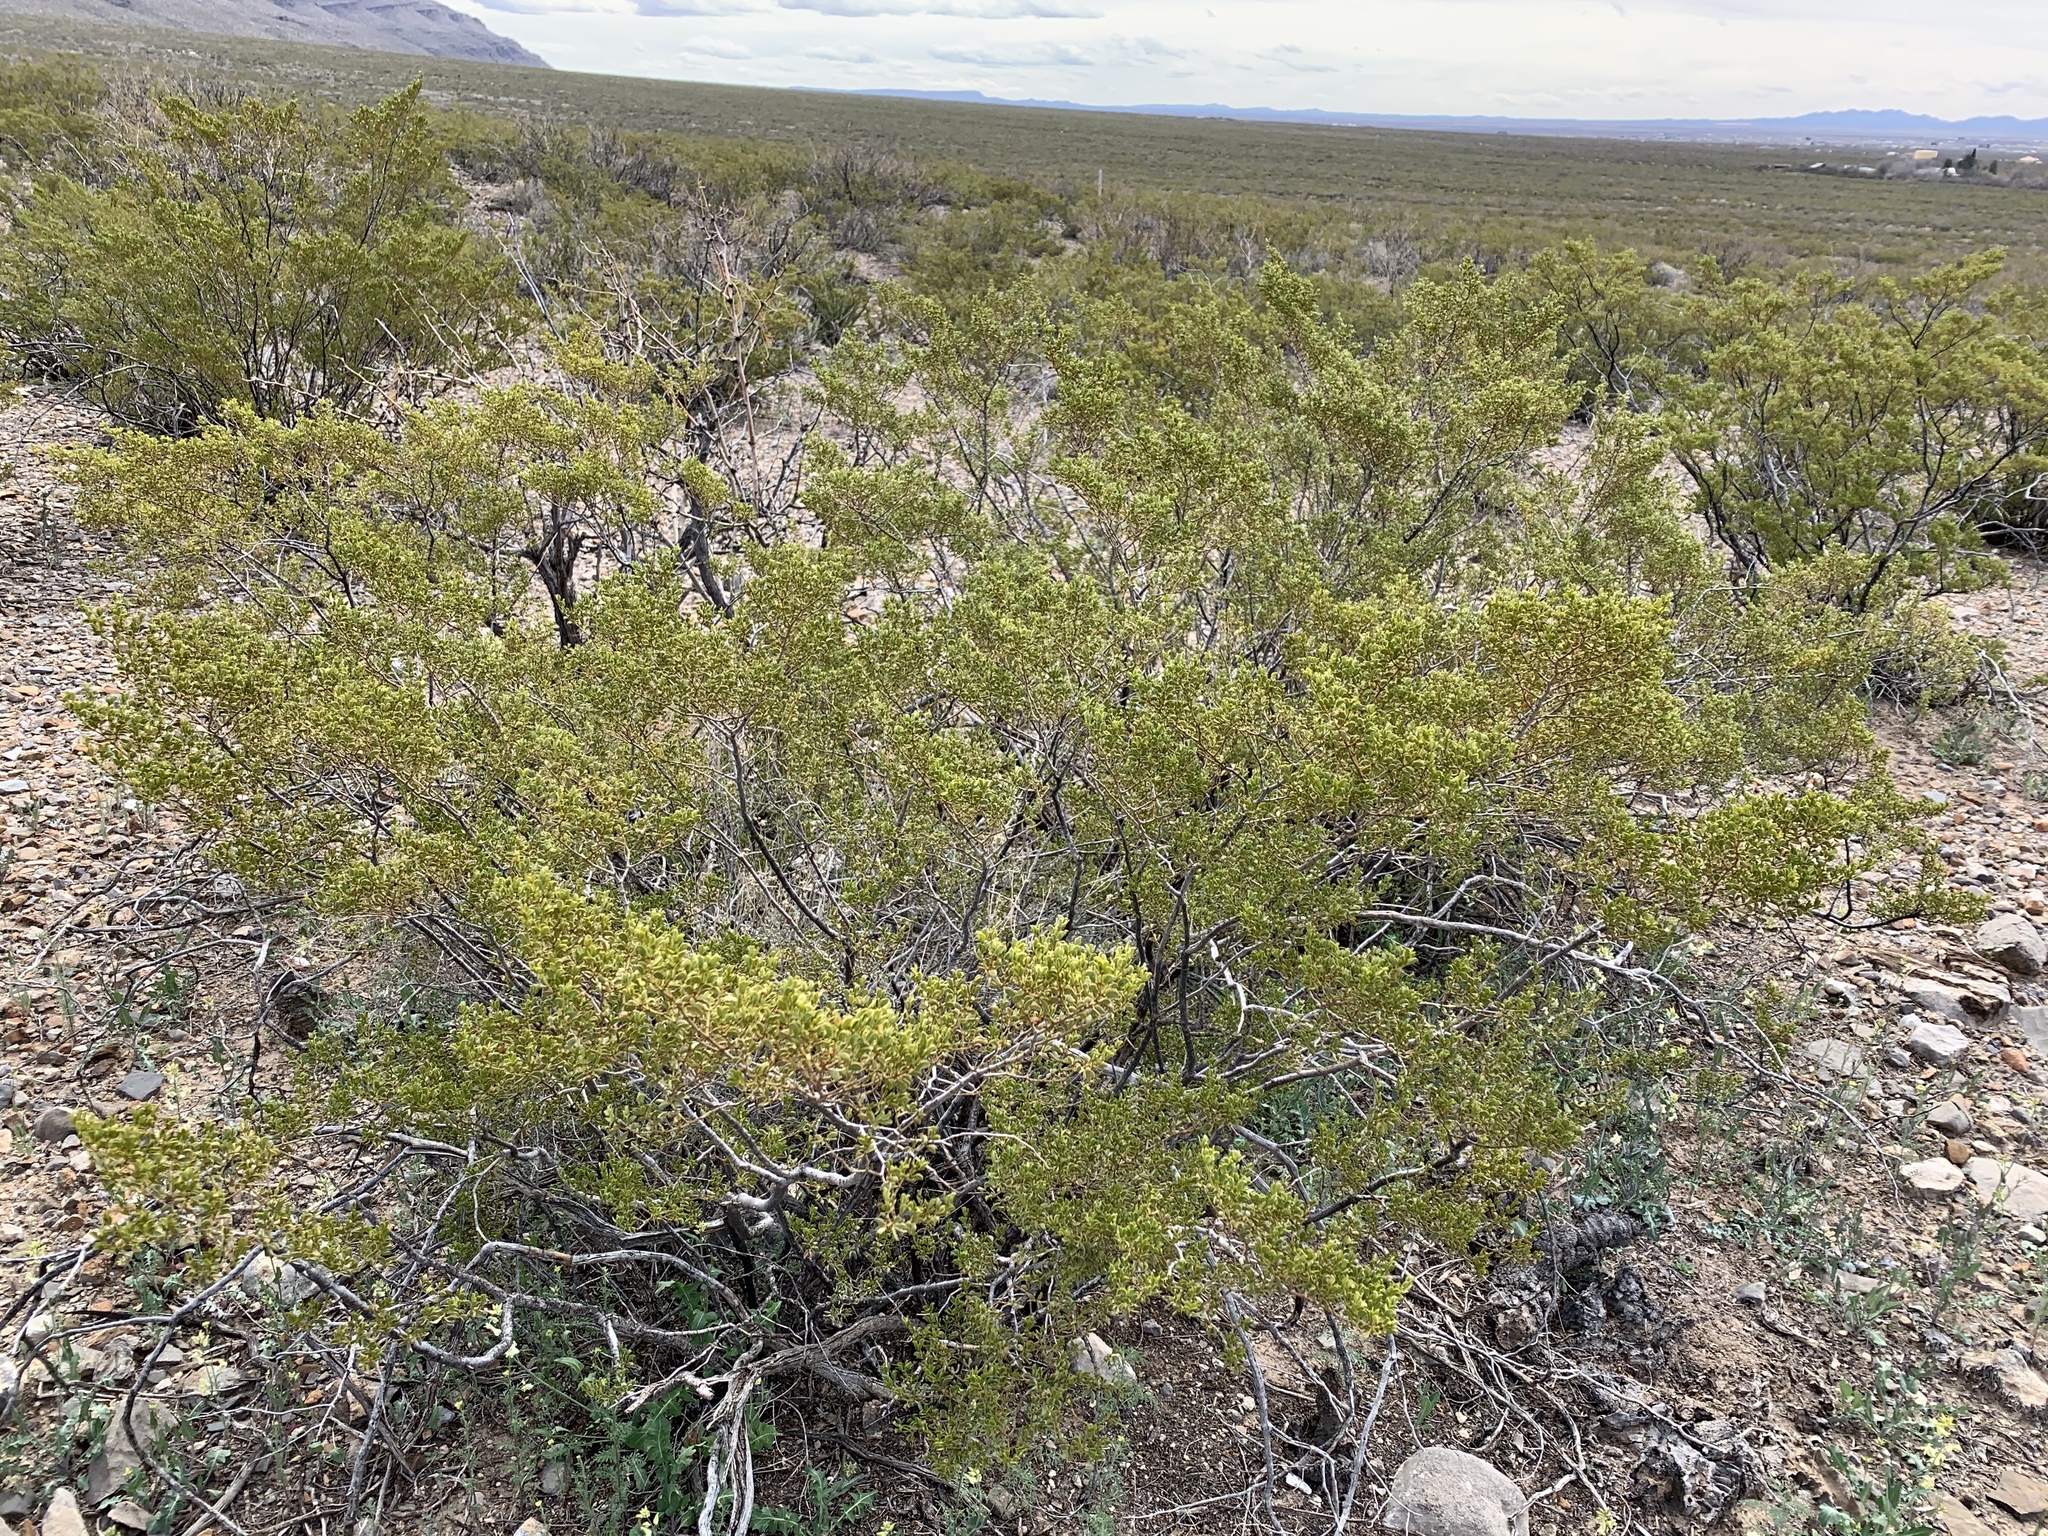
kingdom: Plantae
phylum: Tracheophyta
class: Magnoliopsida
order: Zygophyllales
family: Zygophyllaceae
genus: Larrea
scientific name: Larrea tridentata
